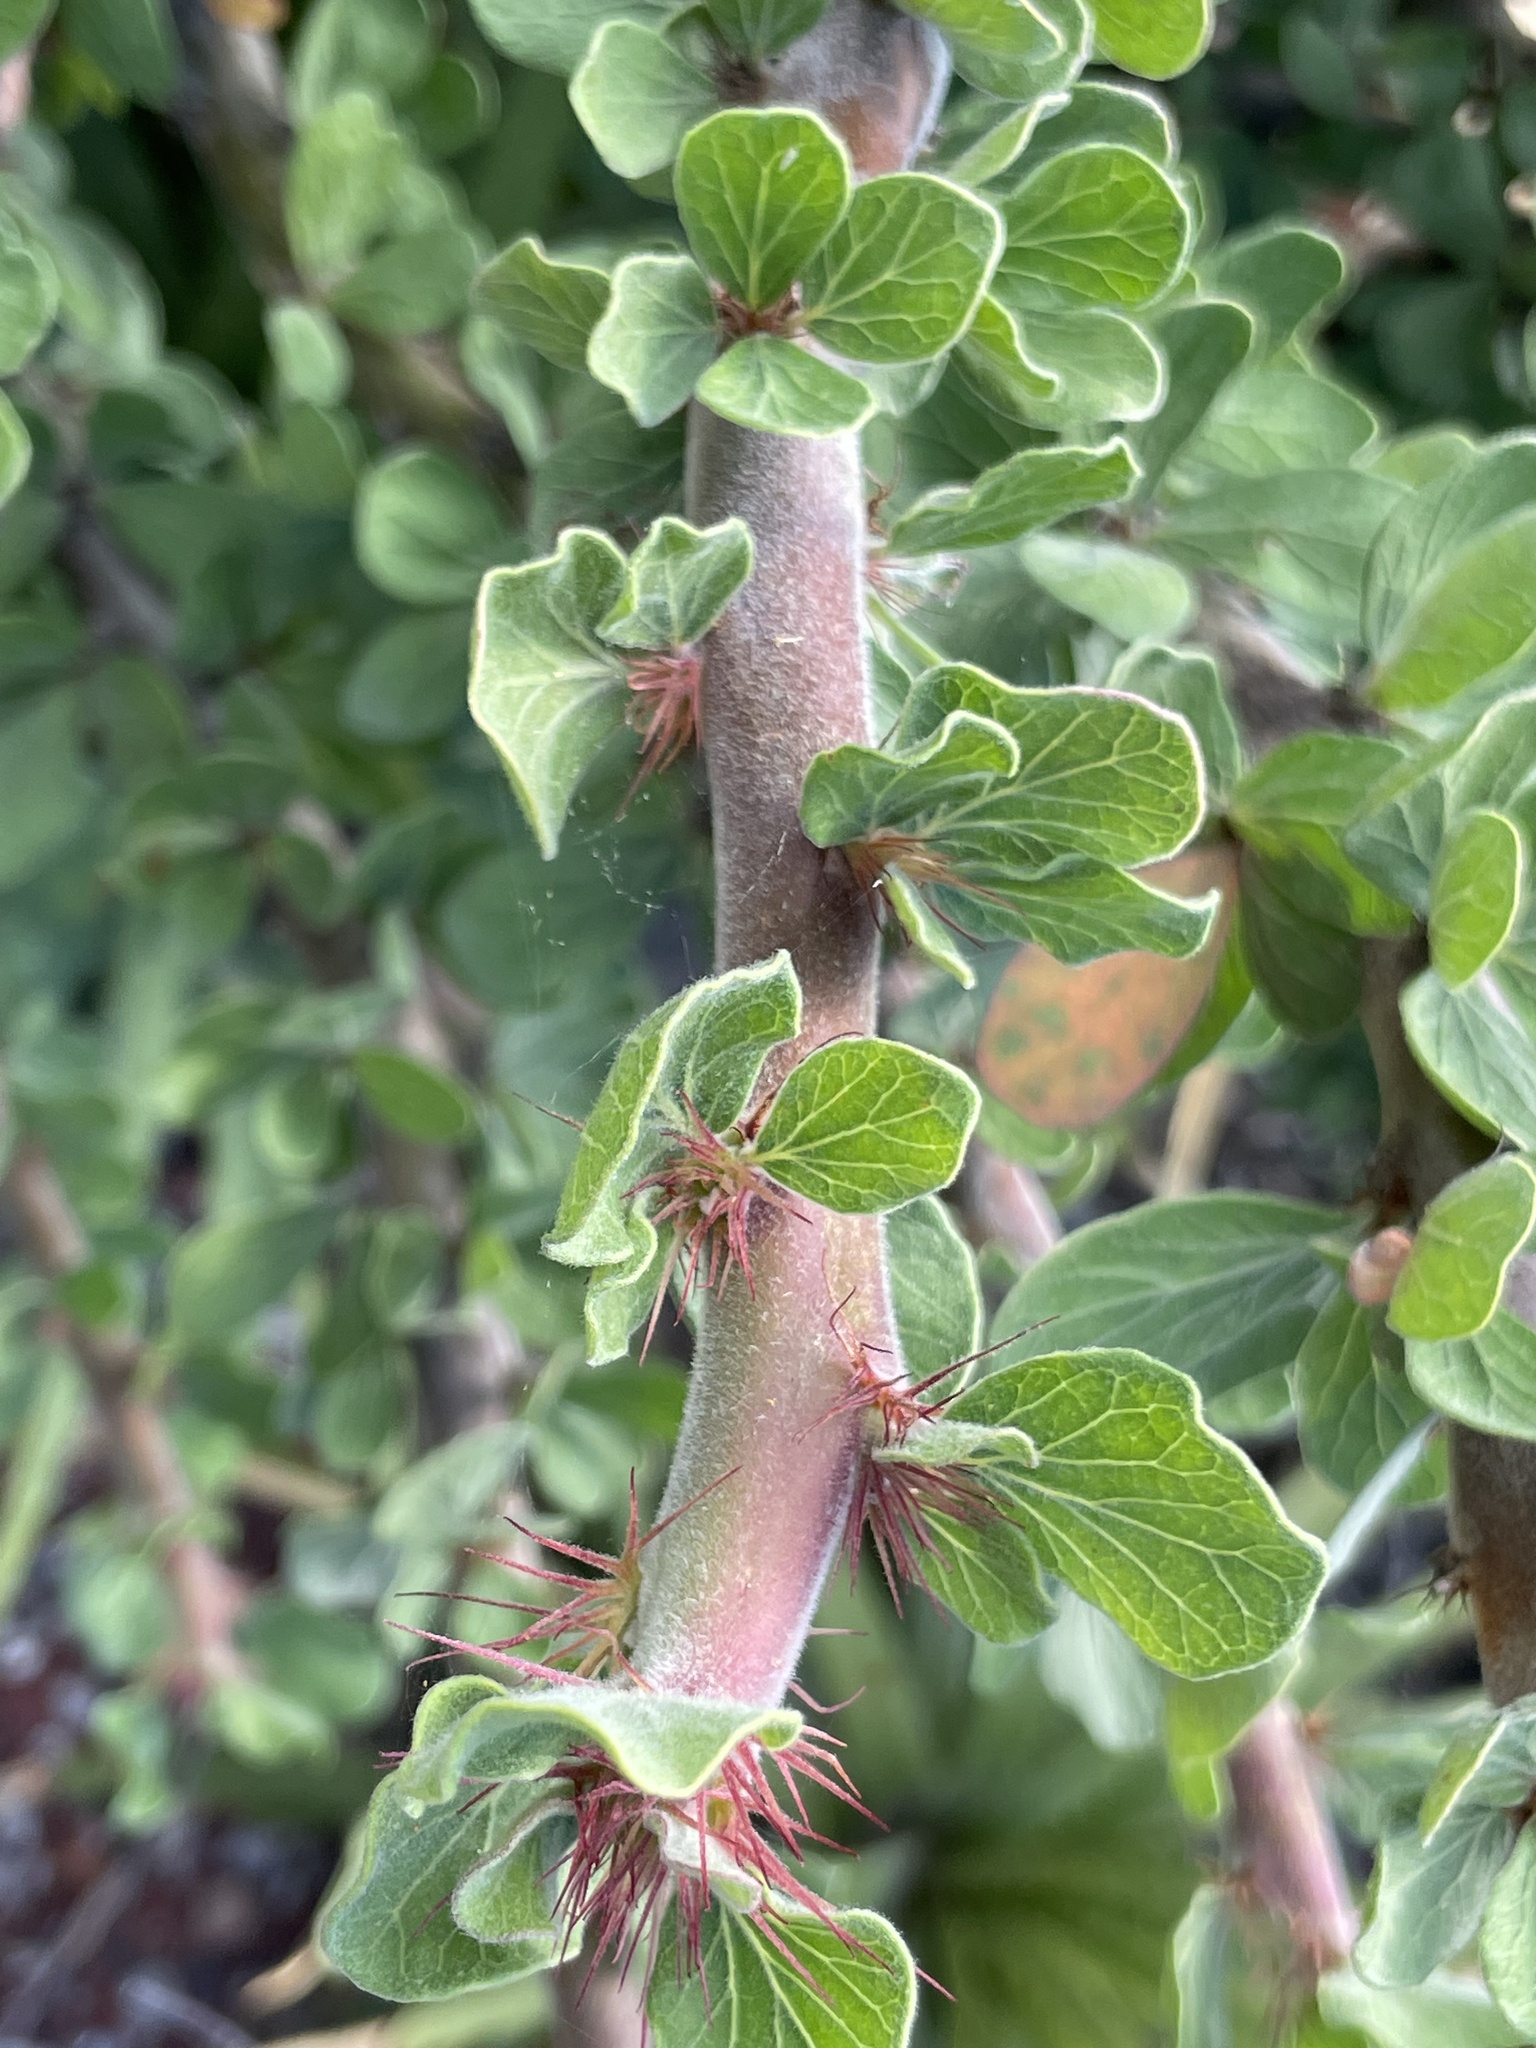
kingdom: Plantae
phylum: Tracheophyta
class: Magnoliopsida
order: Malpighiales
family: Euphorbiaceae
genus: Jatropha
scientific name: Jatropha dioica
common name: Leatherstem
